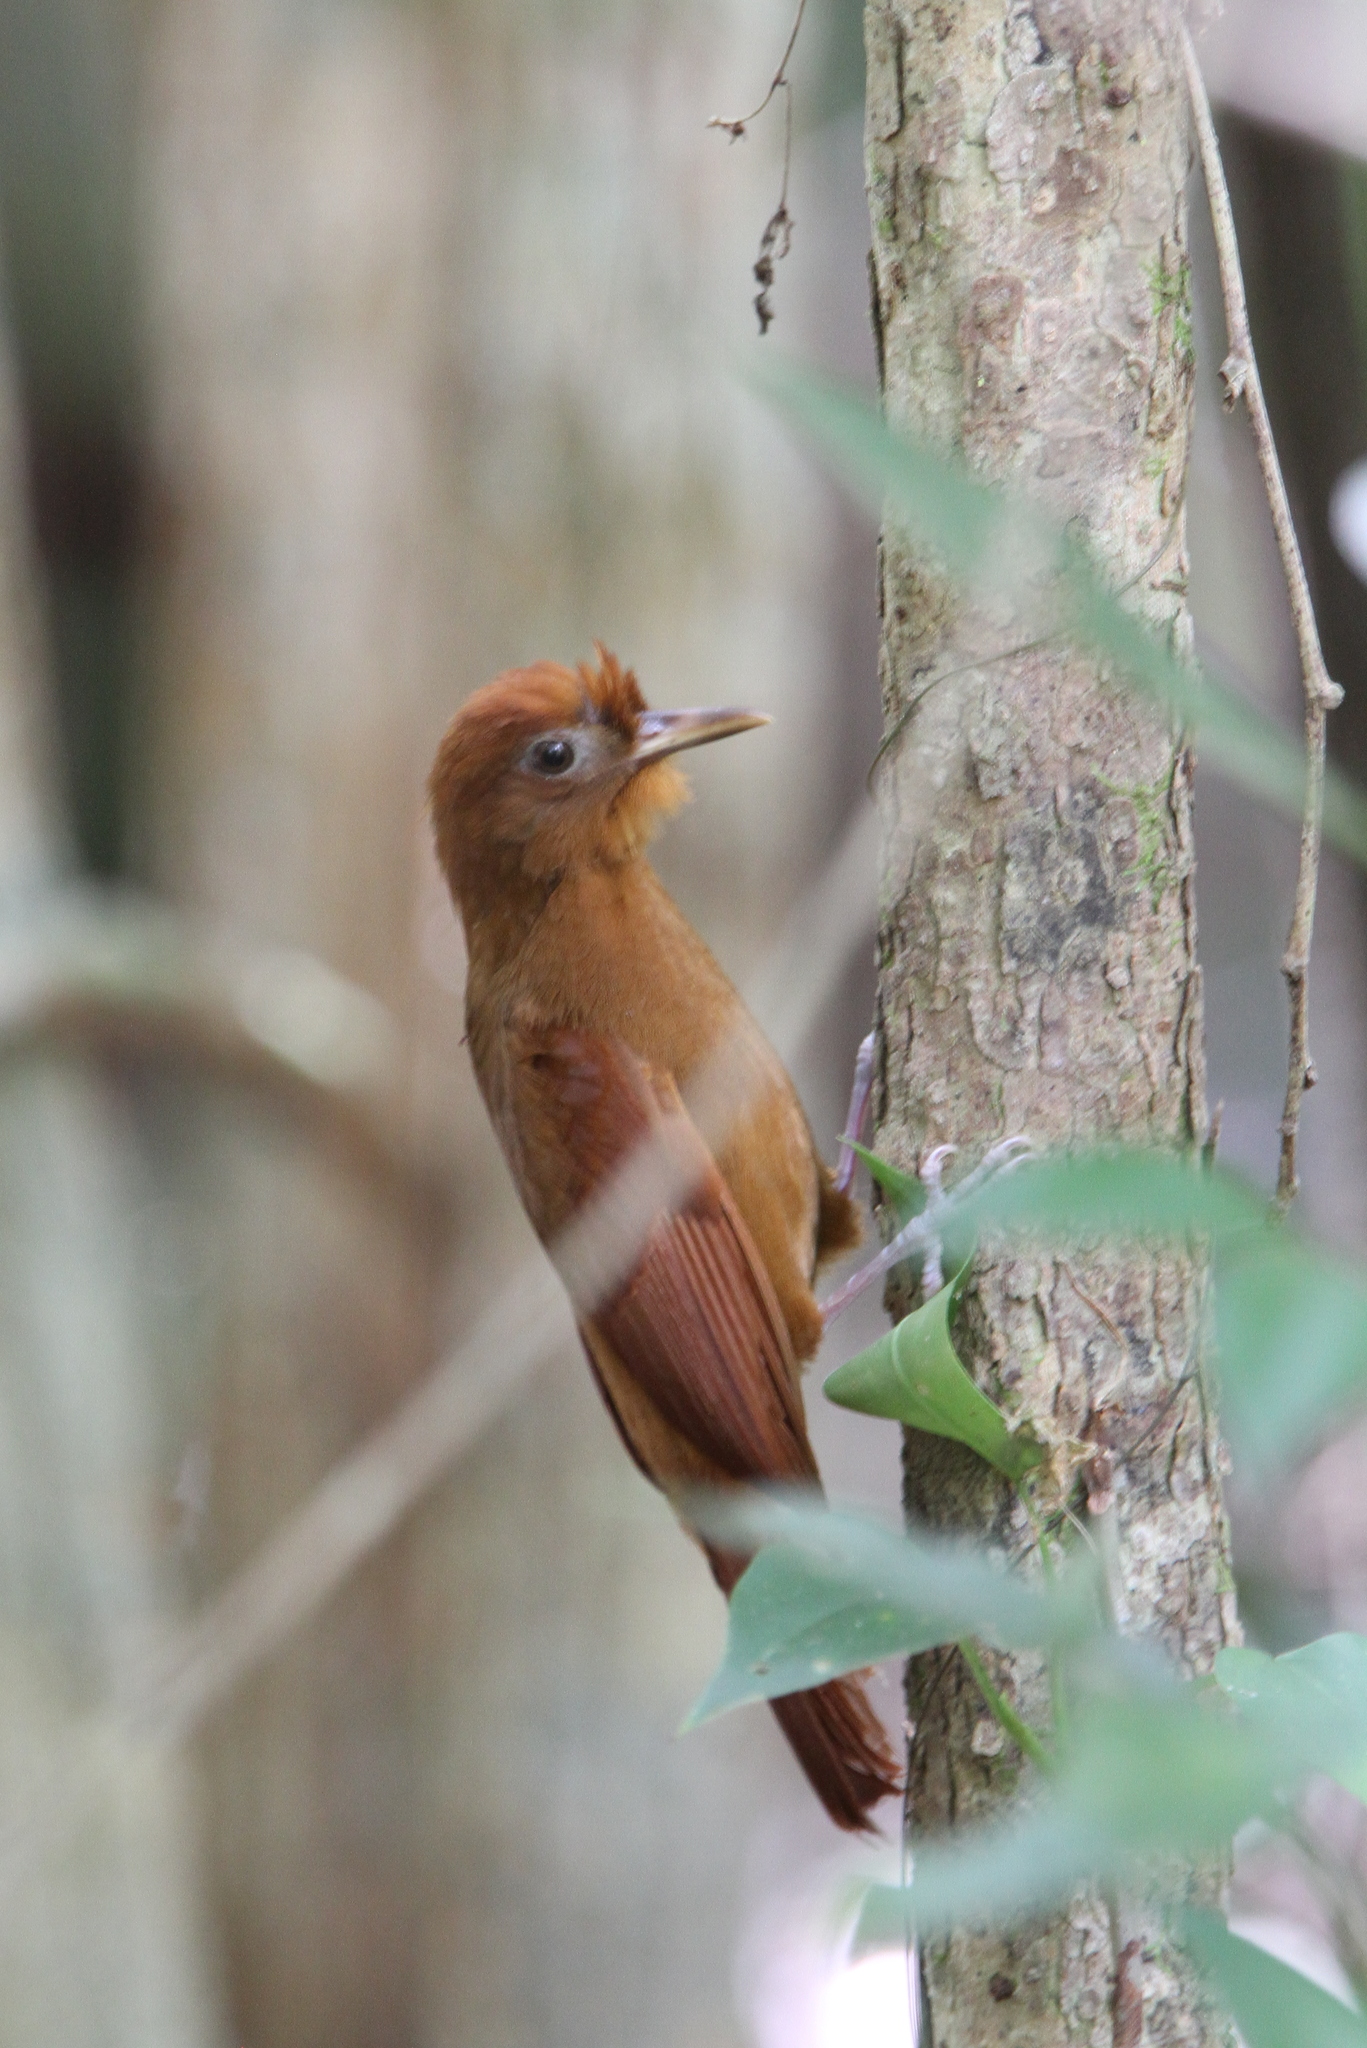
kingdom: Animalia
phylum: Chordata
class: Aves
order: Passeriformes
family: Furnariidae
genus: Dendrocincla
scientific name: Dendrocincla homochroa
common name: Ruddy woodcreeper
